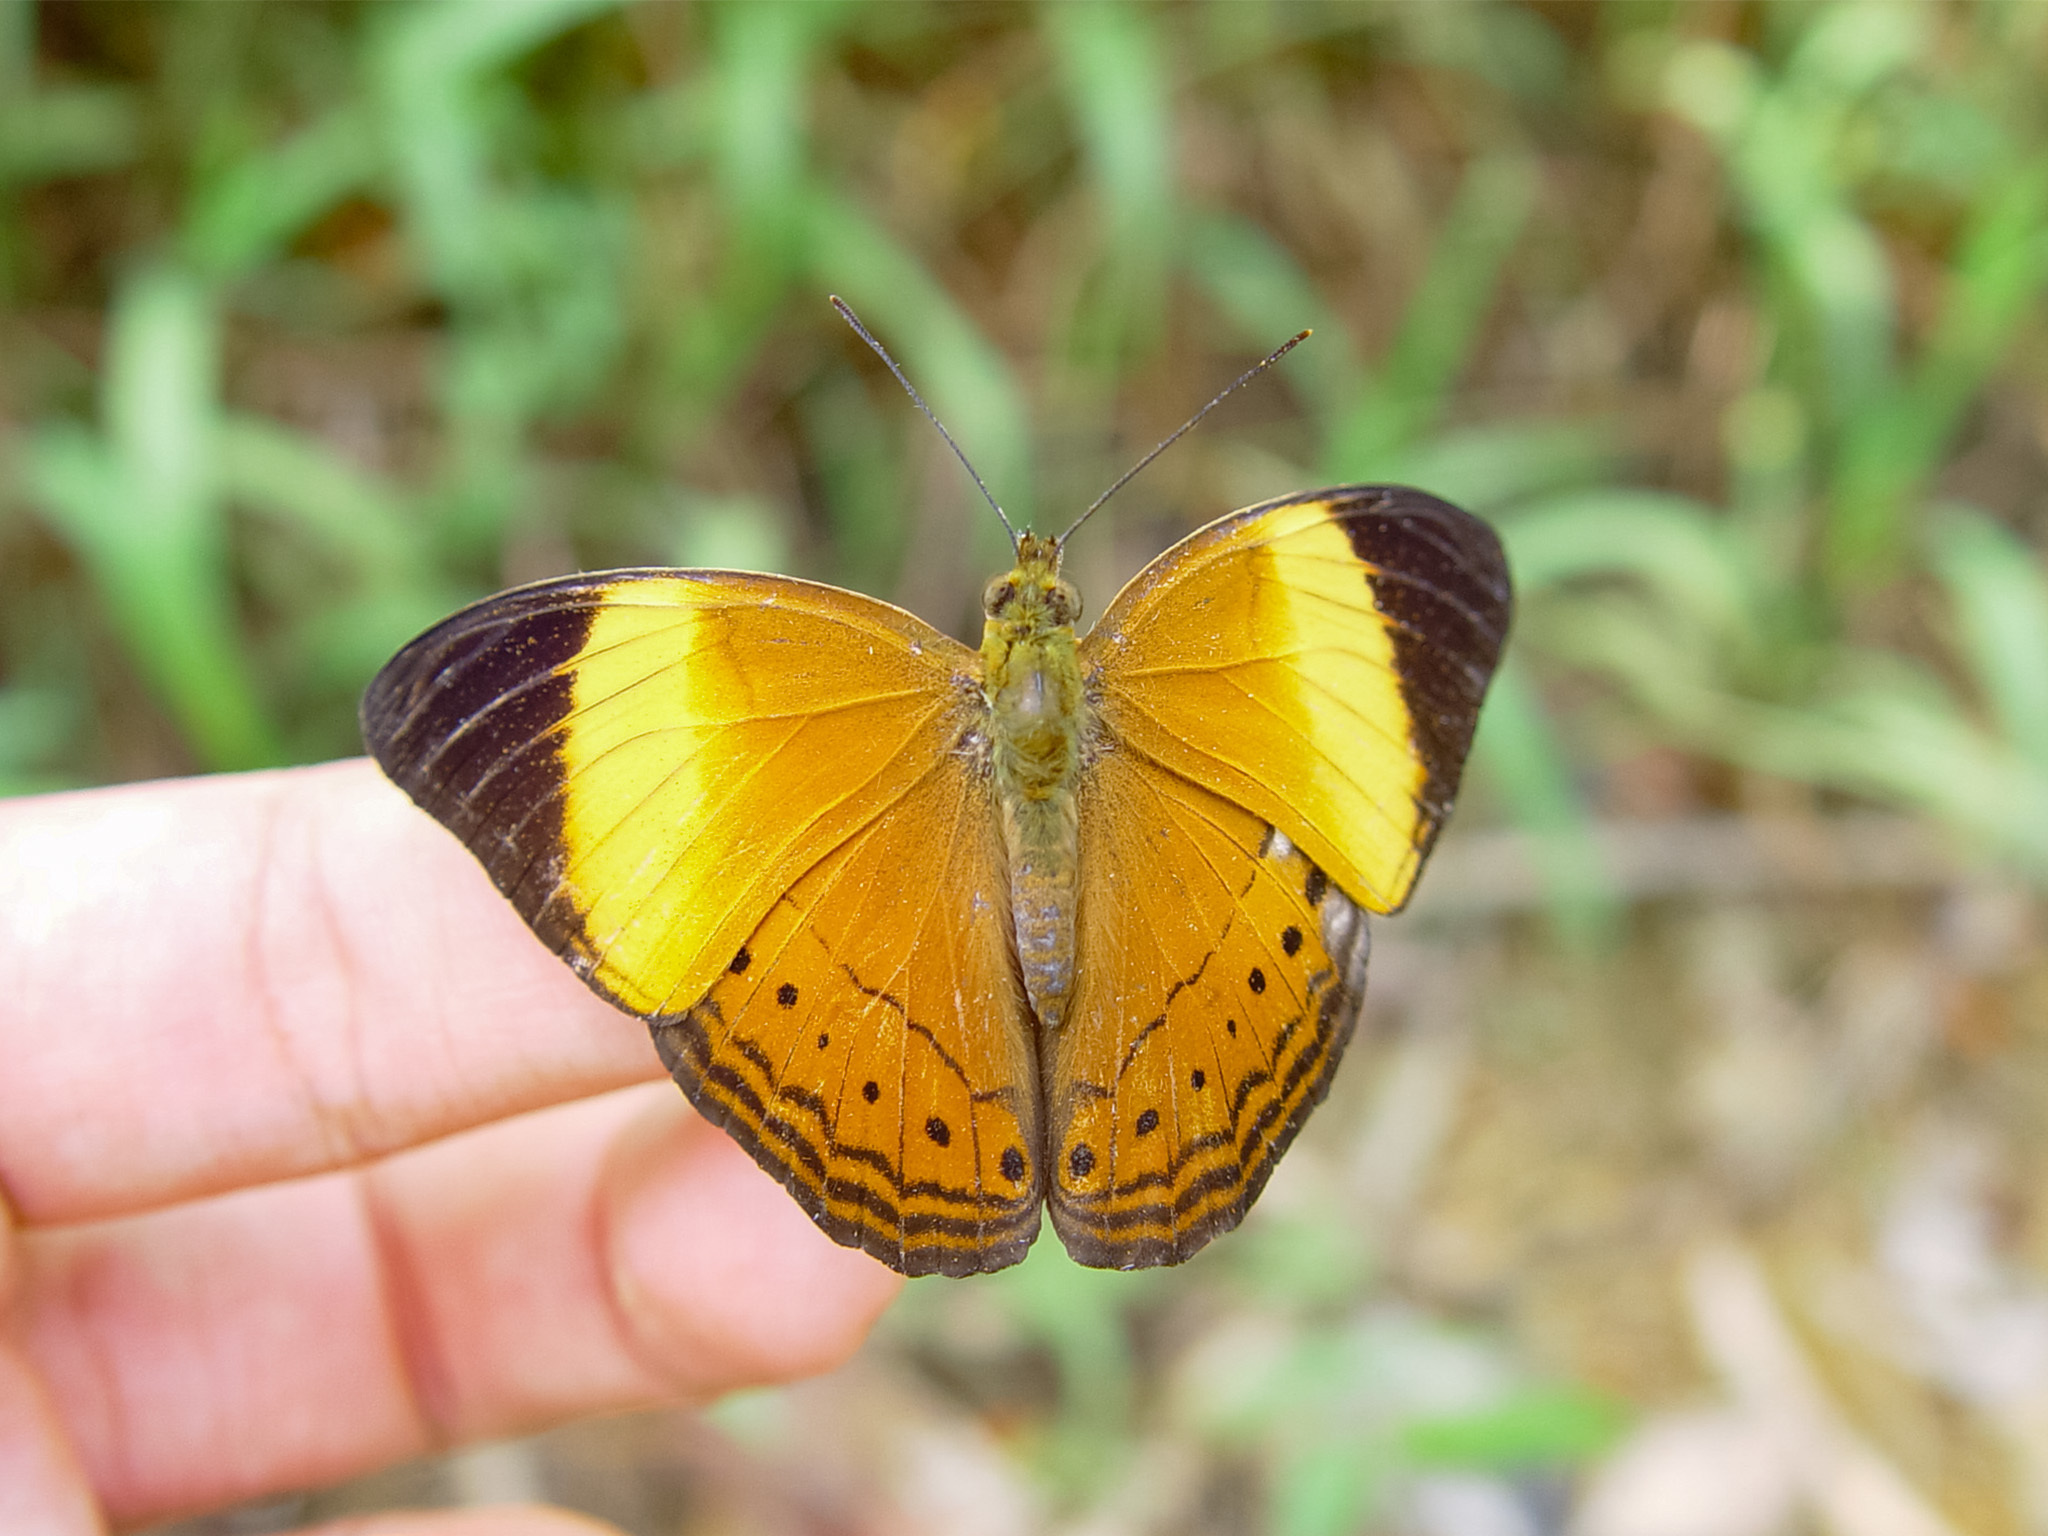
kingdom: Animalia
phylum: Arthropoda
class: Insecta
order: Lepidoptera
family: Nymphalidae
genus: Cirrochroa
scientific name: Cirrochroa orissa
